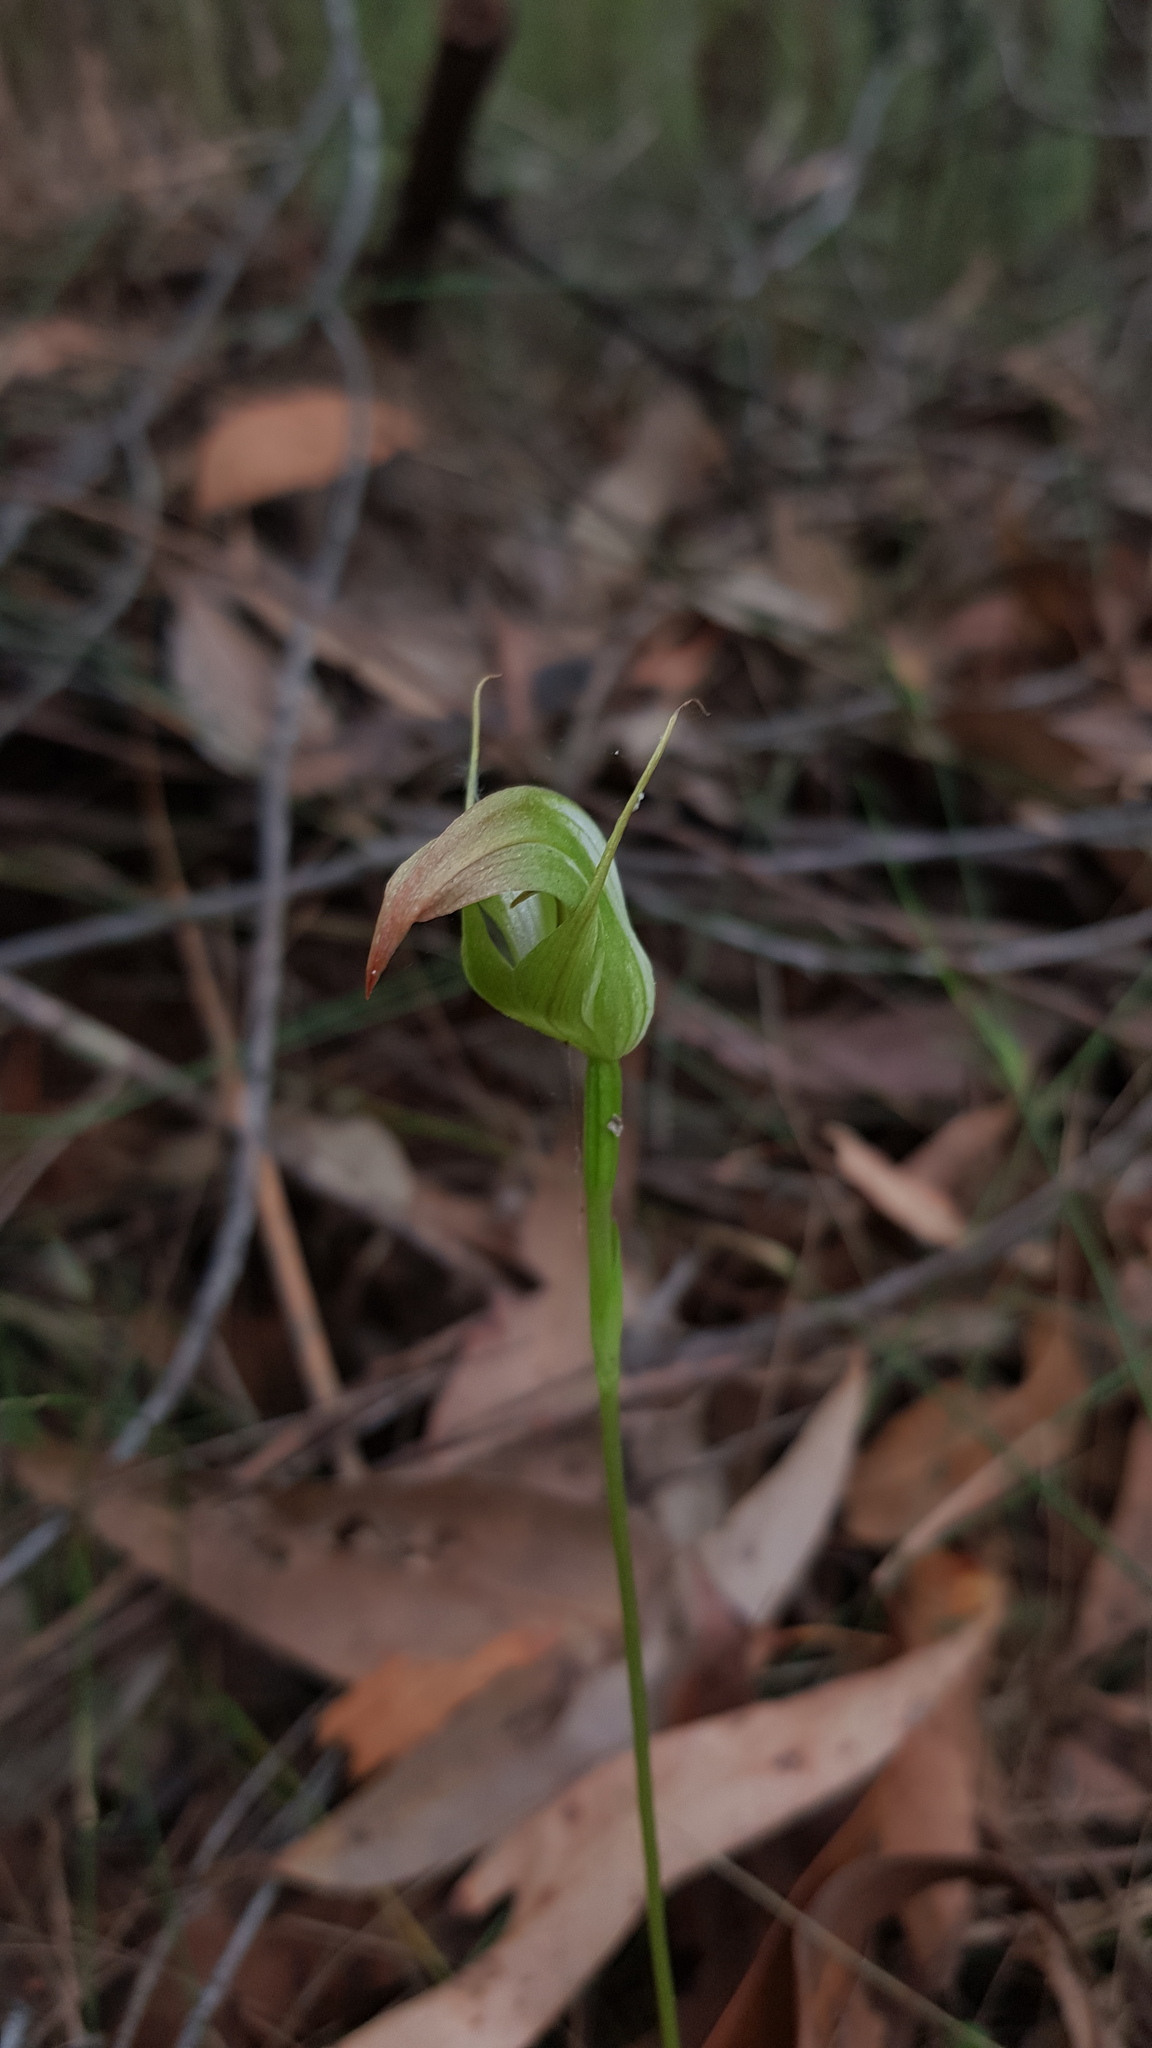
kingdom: Plantae
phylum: Tracheophyta
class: Liliopsida
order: Asparagales
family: Orchidaceae
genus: Pterostylis
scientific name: Pterostylis acuminata
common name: Pointed greenhood
